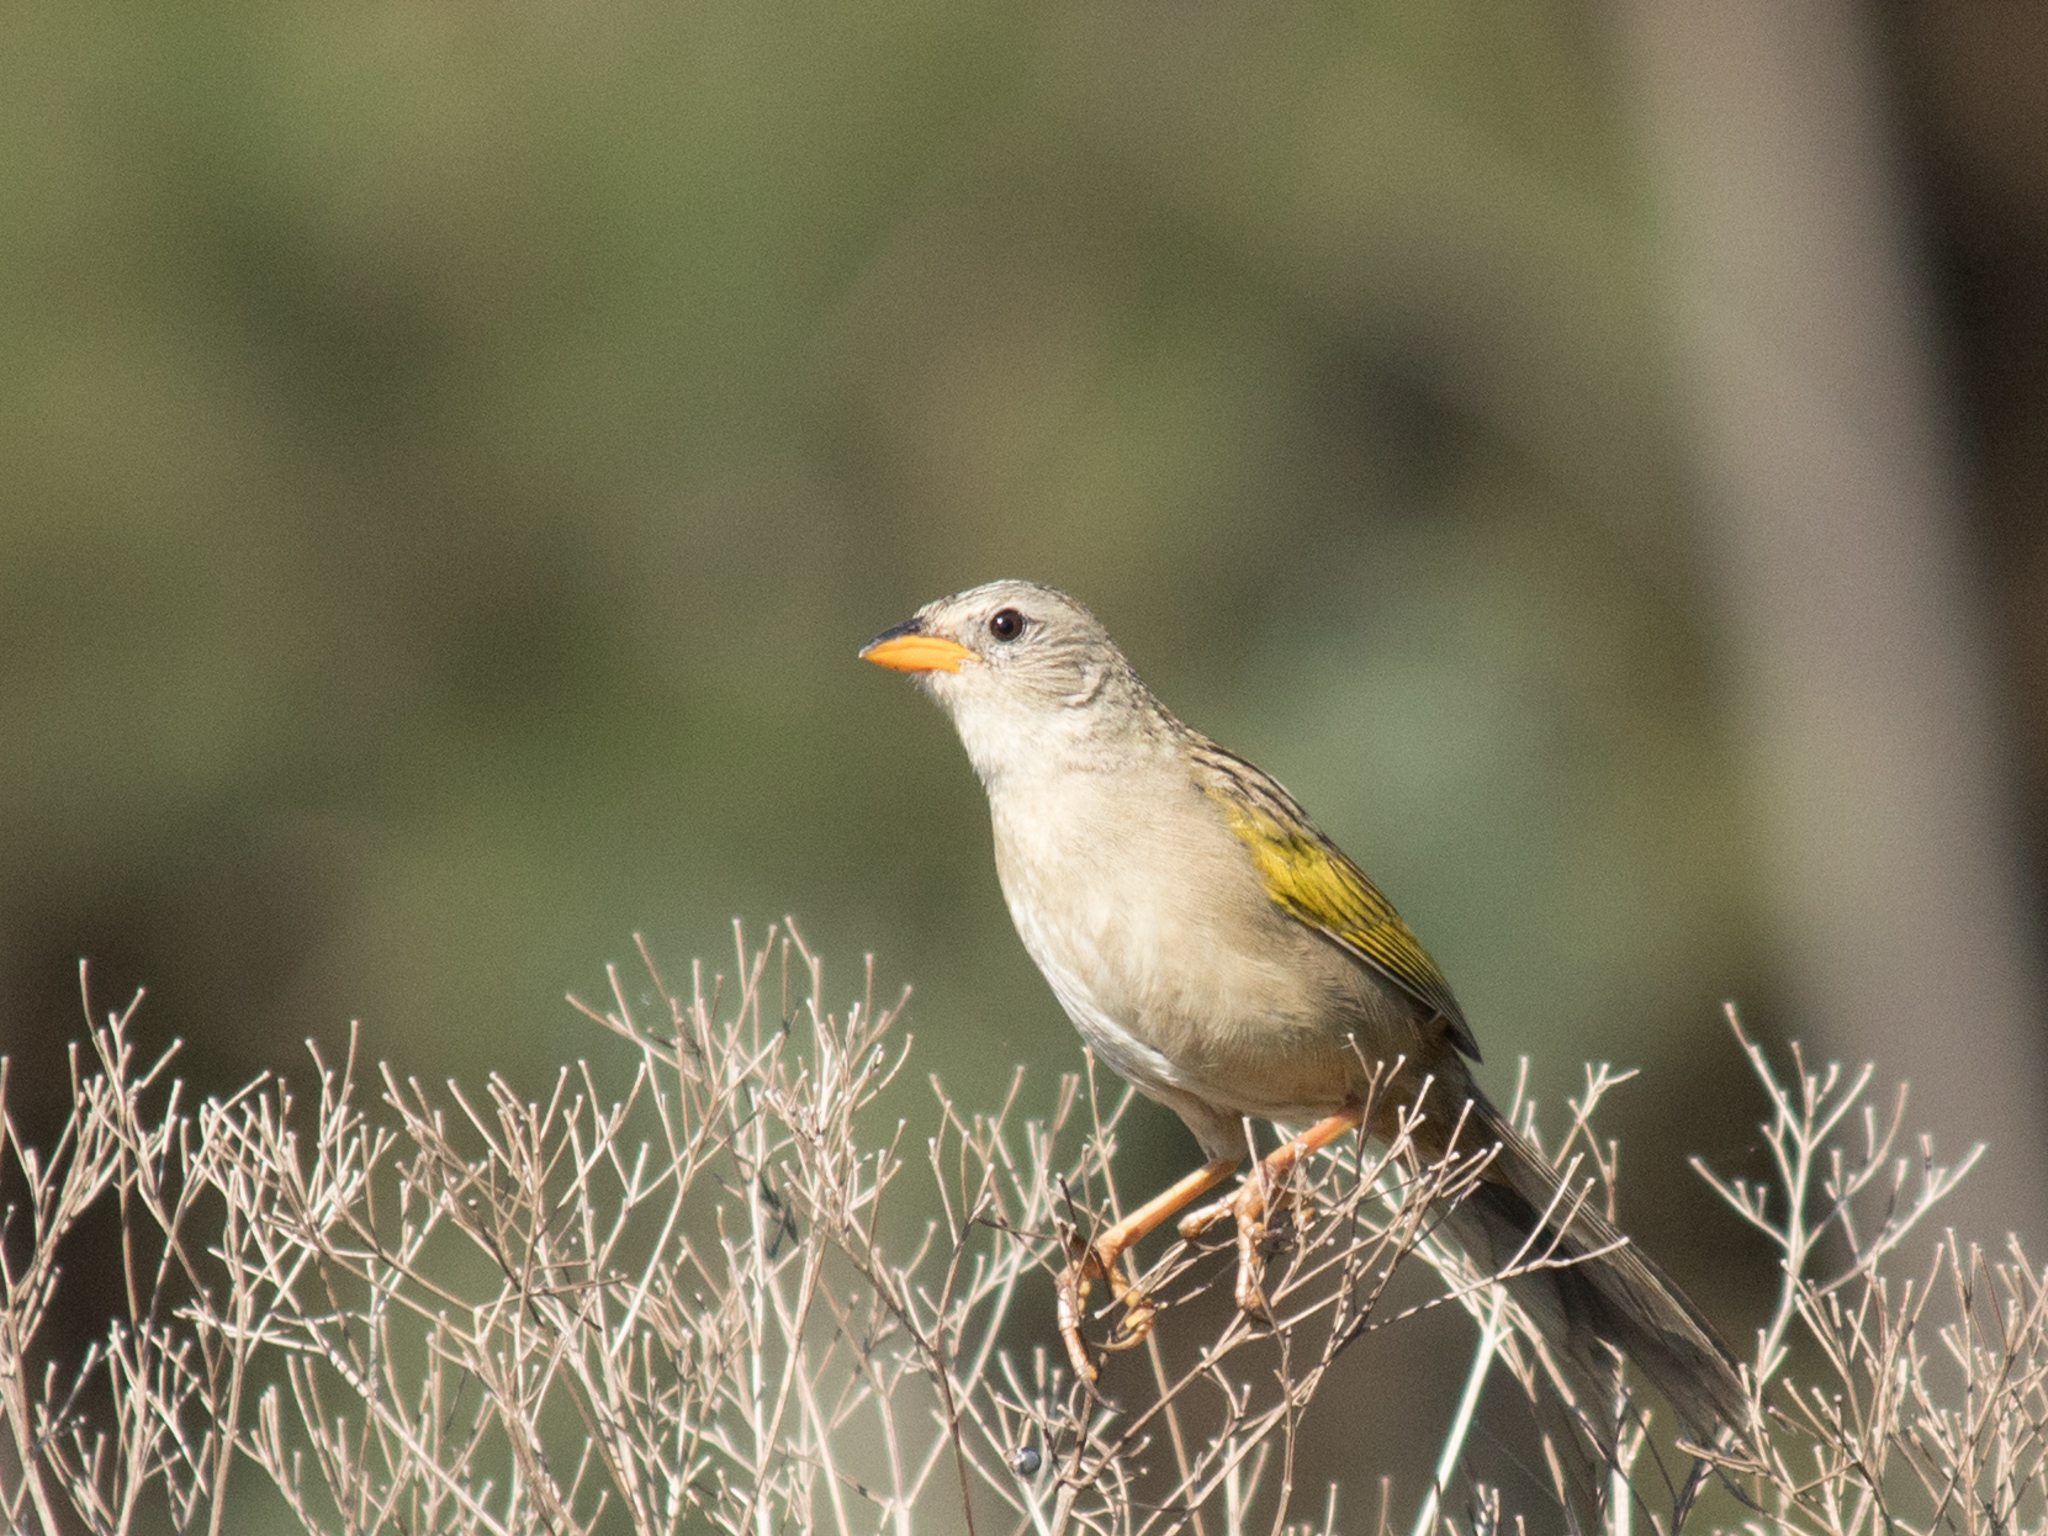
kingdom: Animalia
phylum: Chordata
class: Aves
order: Passeriformes
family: Thraupidae
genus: Emberizoides
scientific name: Emberizoides herbicola
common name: Wedge-tailed grass-finch
